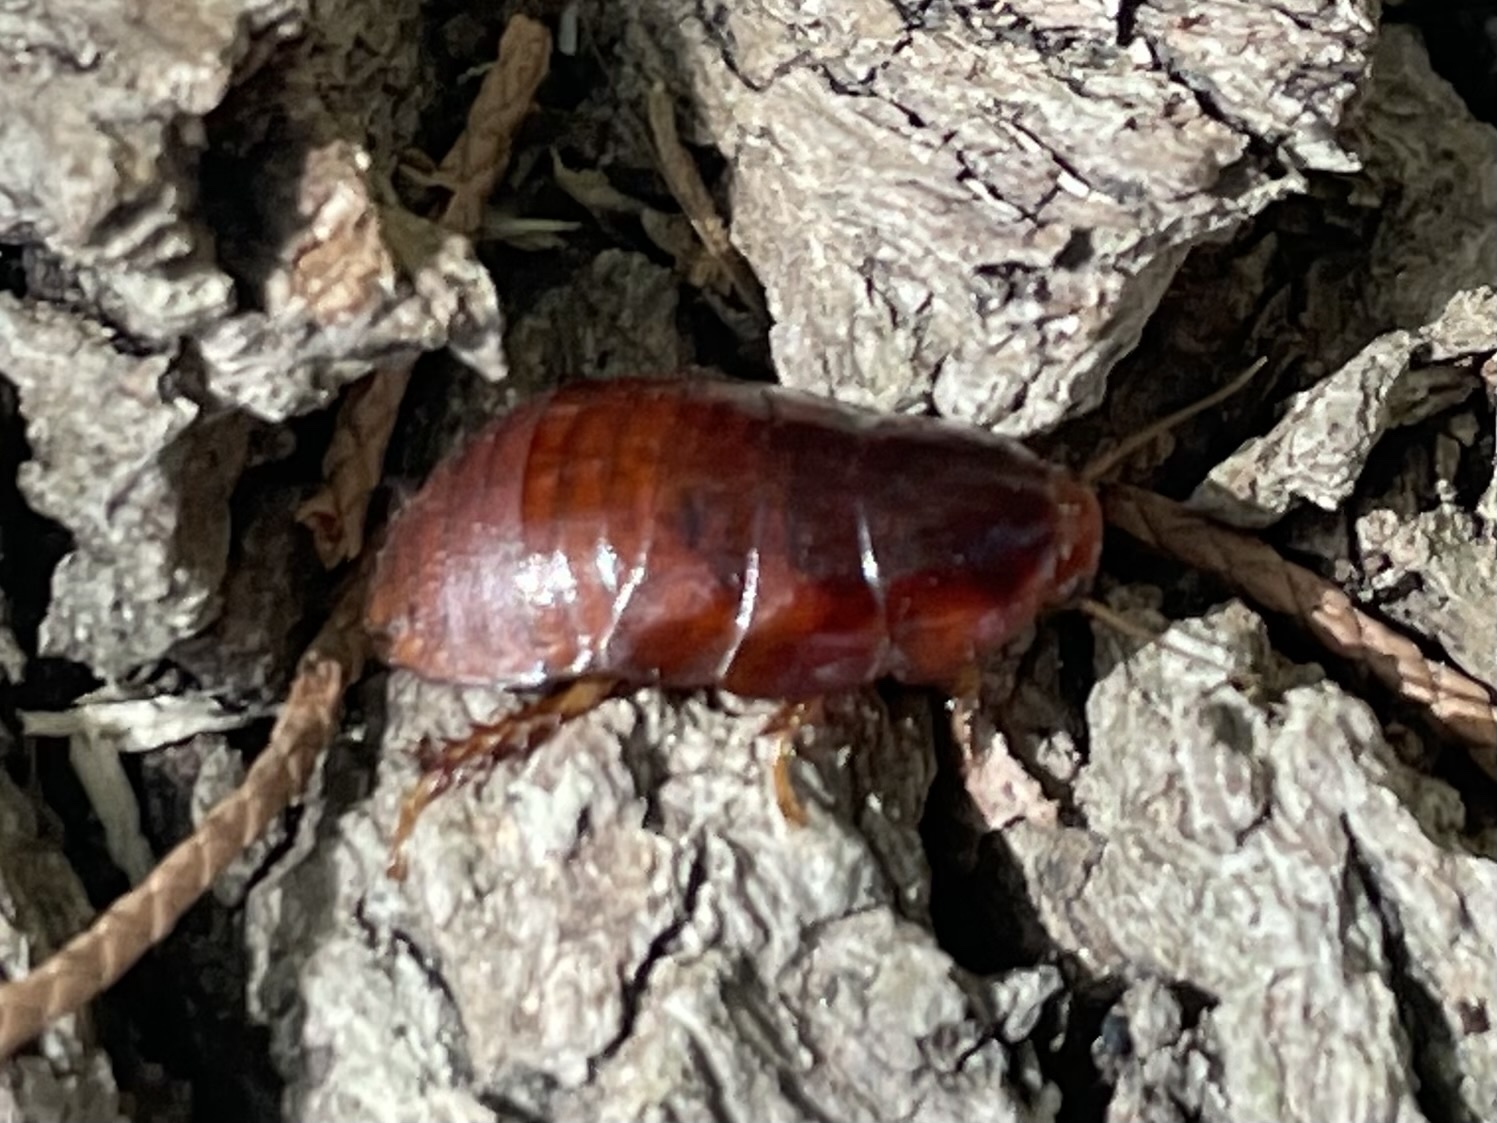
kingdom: Animalia
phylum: Arthropoda
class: Insecta
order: Blattodea
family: Blaberidae
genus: Pycnoscelus
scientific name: Pycnoscelus surinamensis
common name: Surinam cockroach
